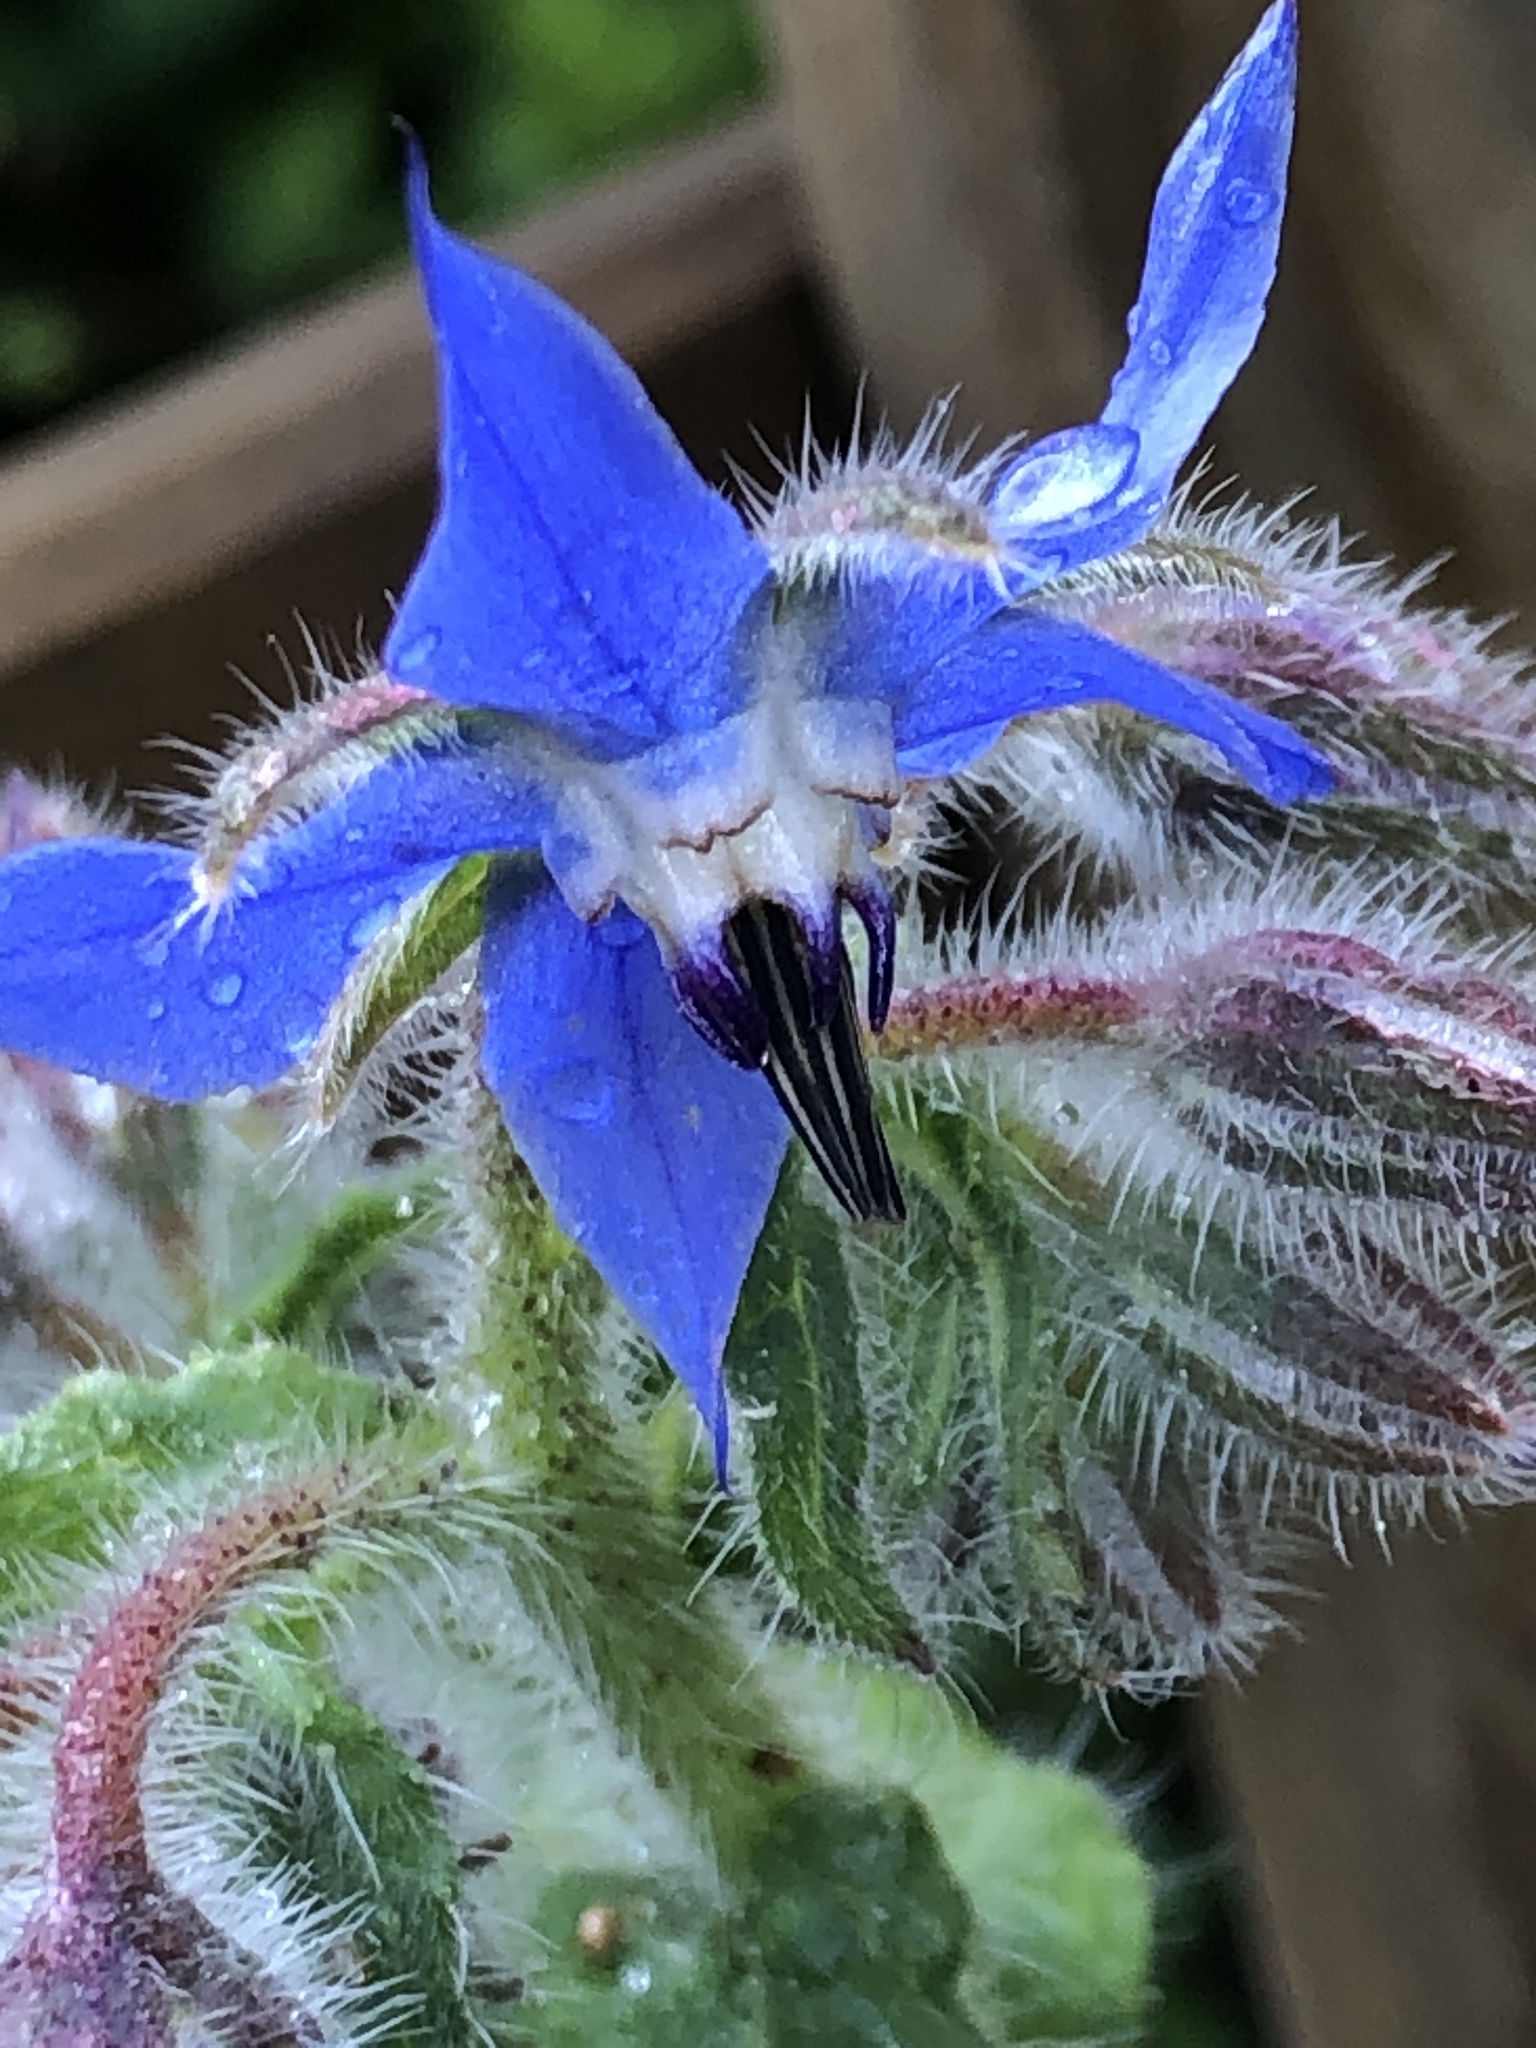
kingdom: Plantae
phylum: Tracheophyta
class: Magnoliopsida
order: Boraginales
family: Boraginaceae
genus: Borago
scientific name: Borago officinalis
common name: Borage
